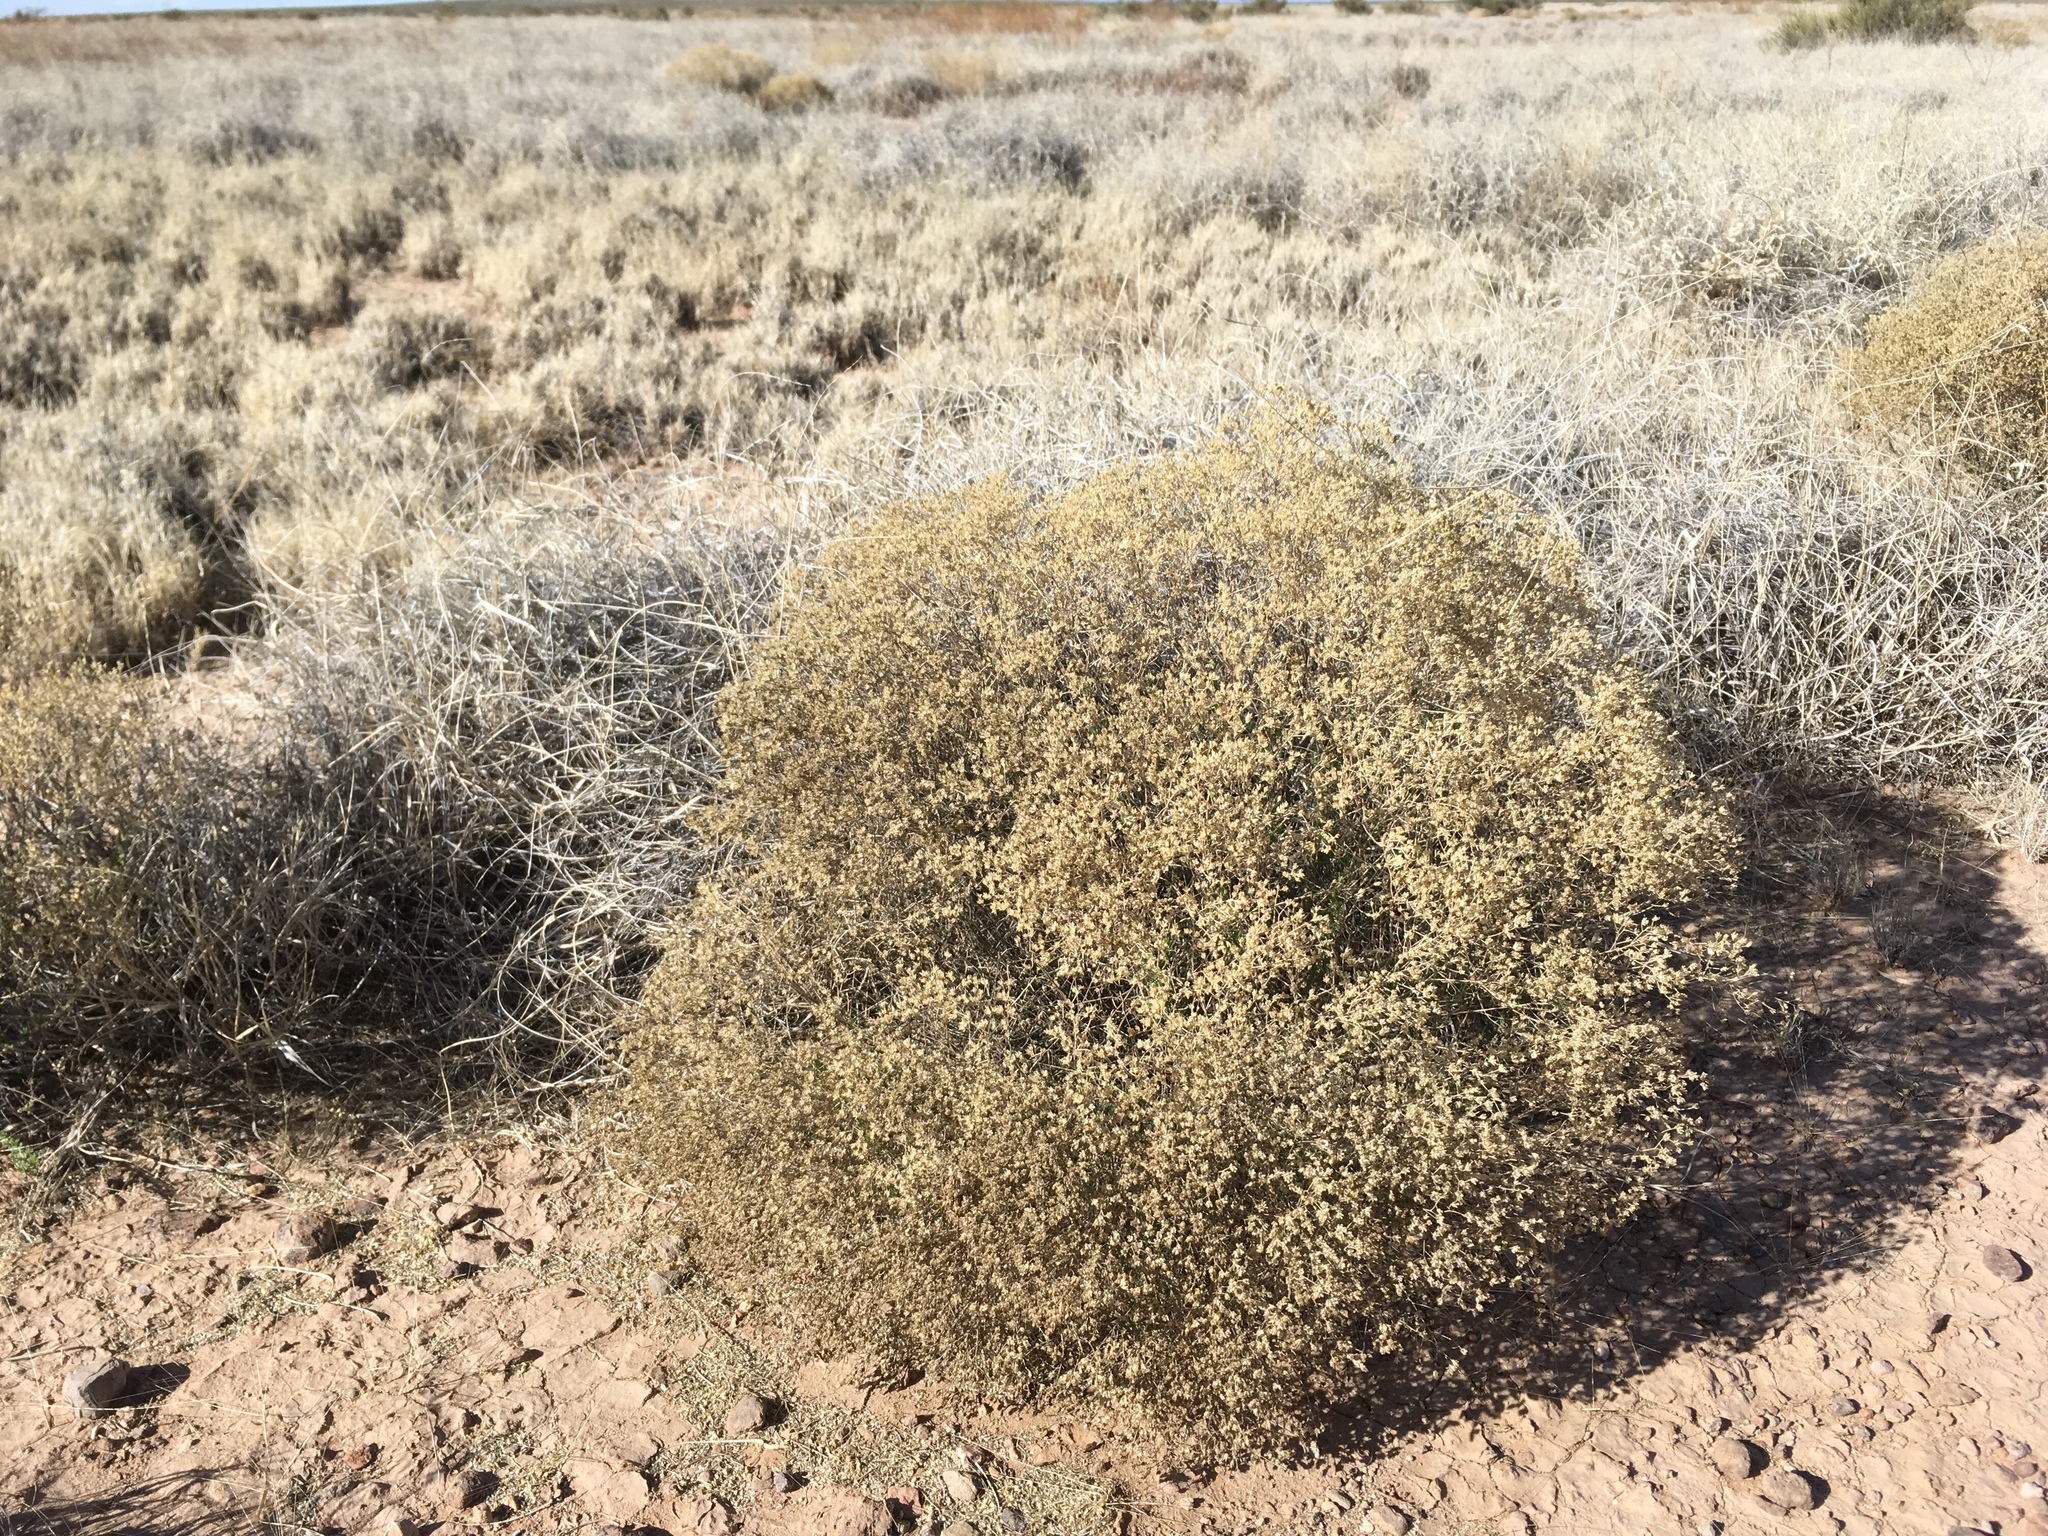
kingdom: Plantae
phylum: Tracheophyta
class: Magnoliopsida
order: Asterales
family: Asteraceae
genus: Gutierrezia
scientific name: Gutierrezia sarothrae
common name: Broom snakeweed
